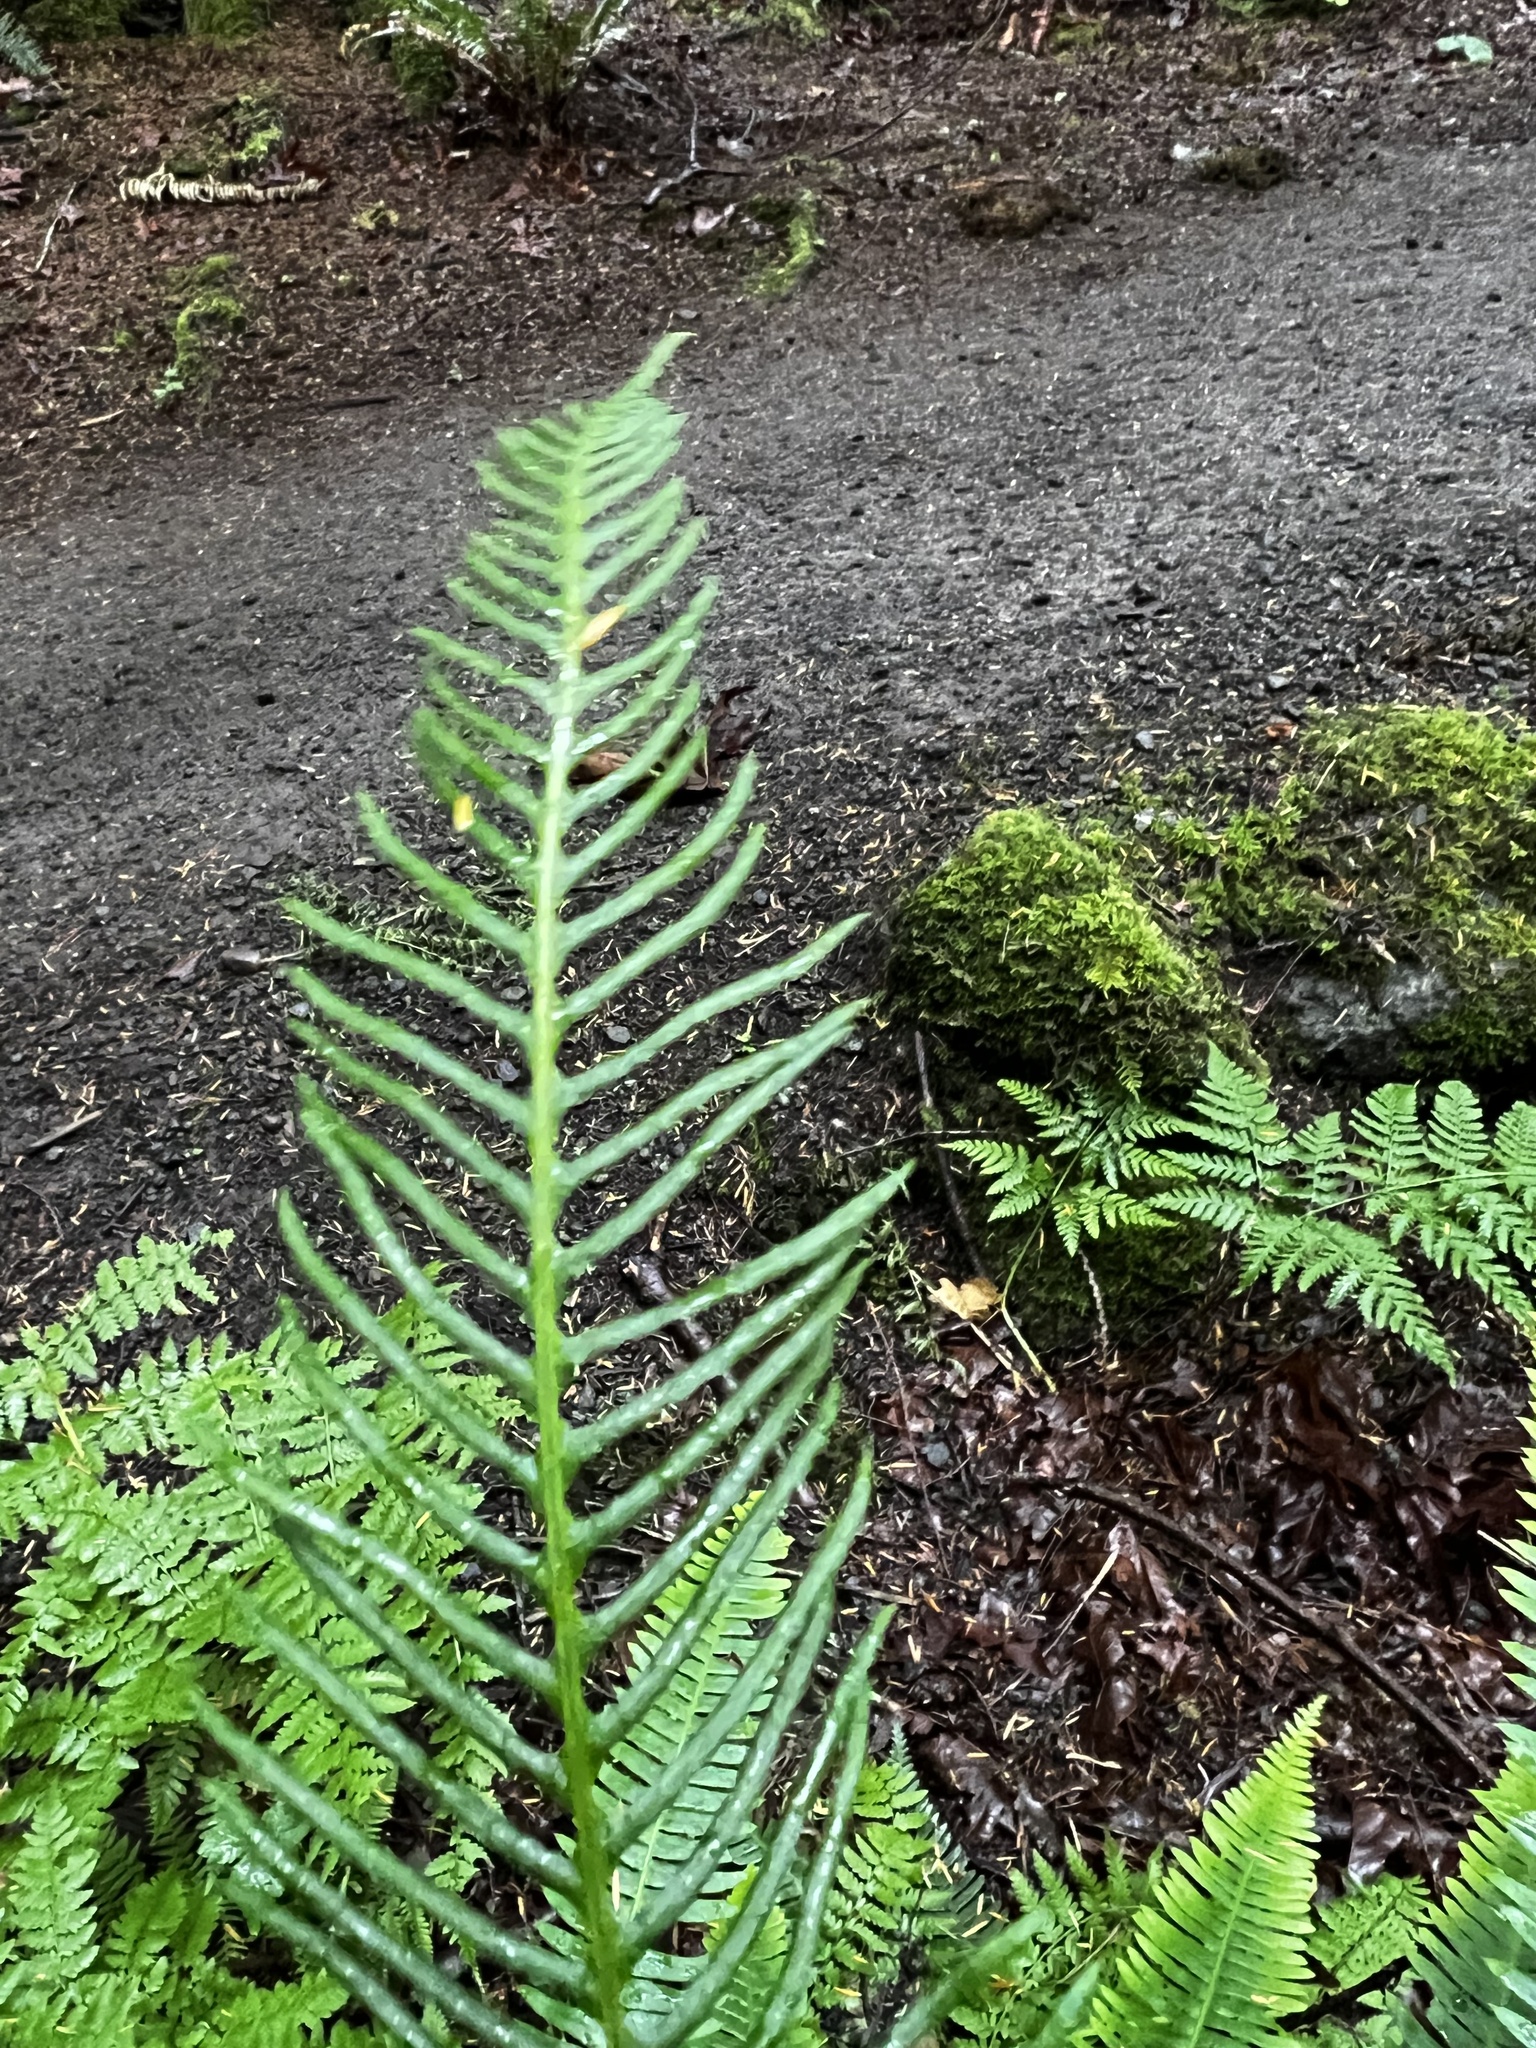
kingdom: Plantae
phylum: Tracheophyta
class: Polypodiopsida
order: Polypodiales
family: Blechnaceae
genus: Struthiopteris
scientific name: Struthiopteris spicant
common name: Deer fern
